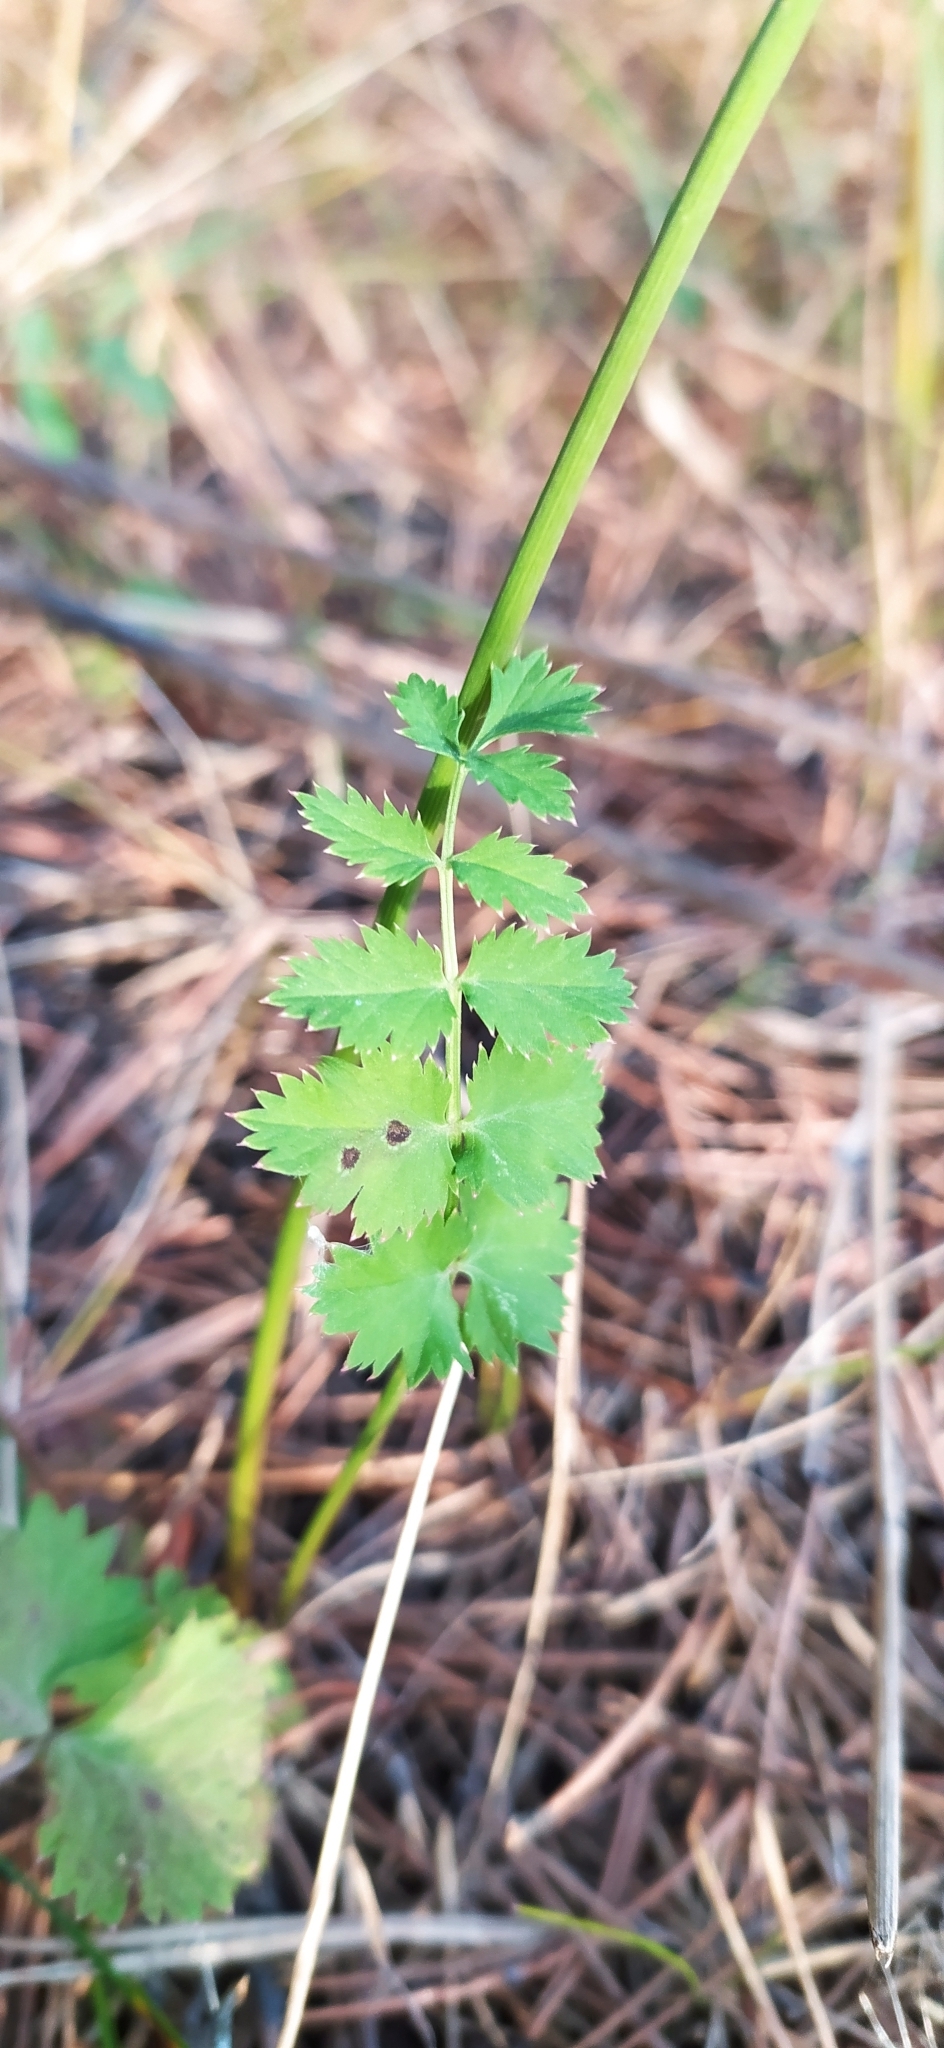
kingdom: Plantae
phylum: Tracheophyta
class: Magnoliopsida
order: Apiales
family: Apiaceae
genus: Pimpinella
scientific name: Pimpinella saxifraga
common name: Burnet-saxifrage
